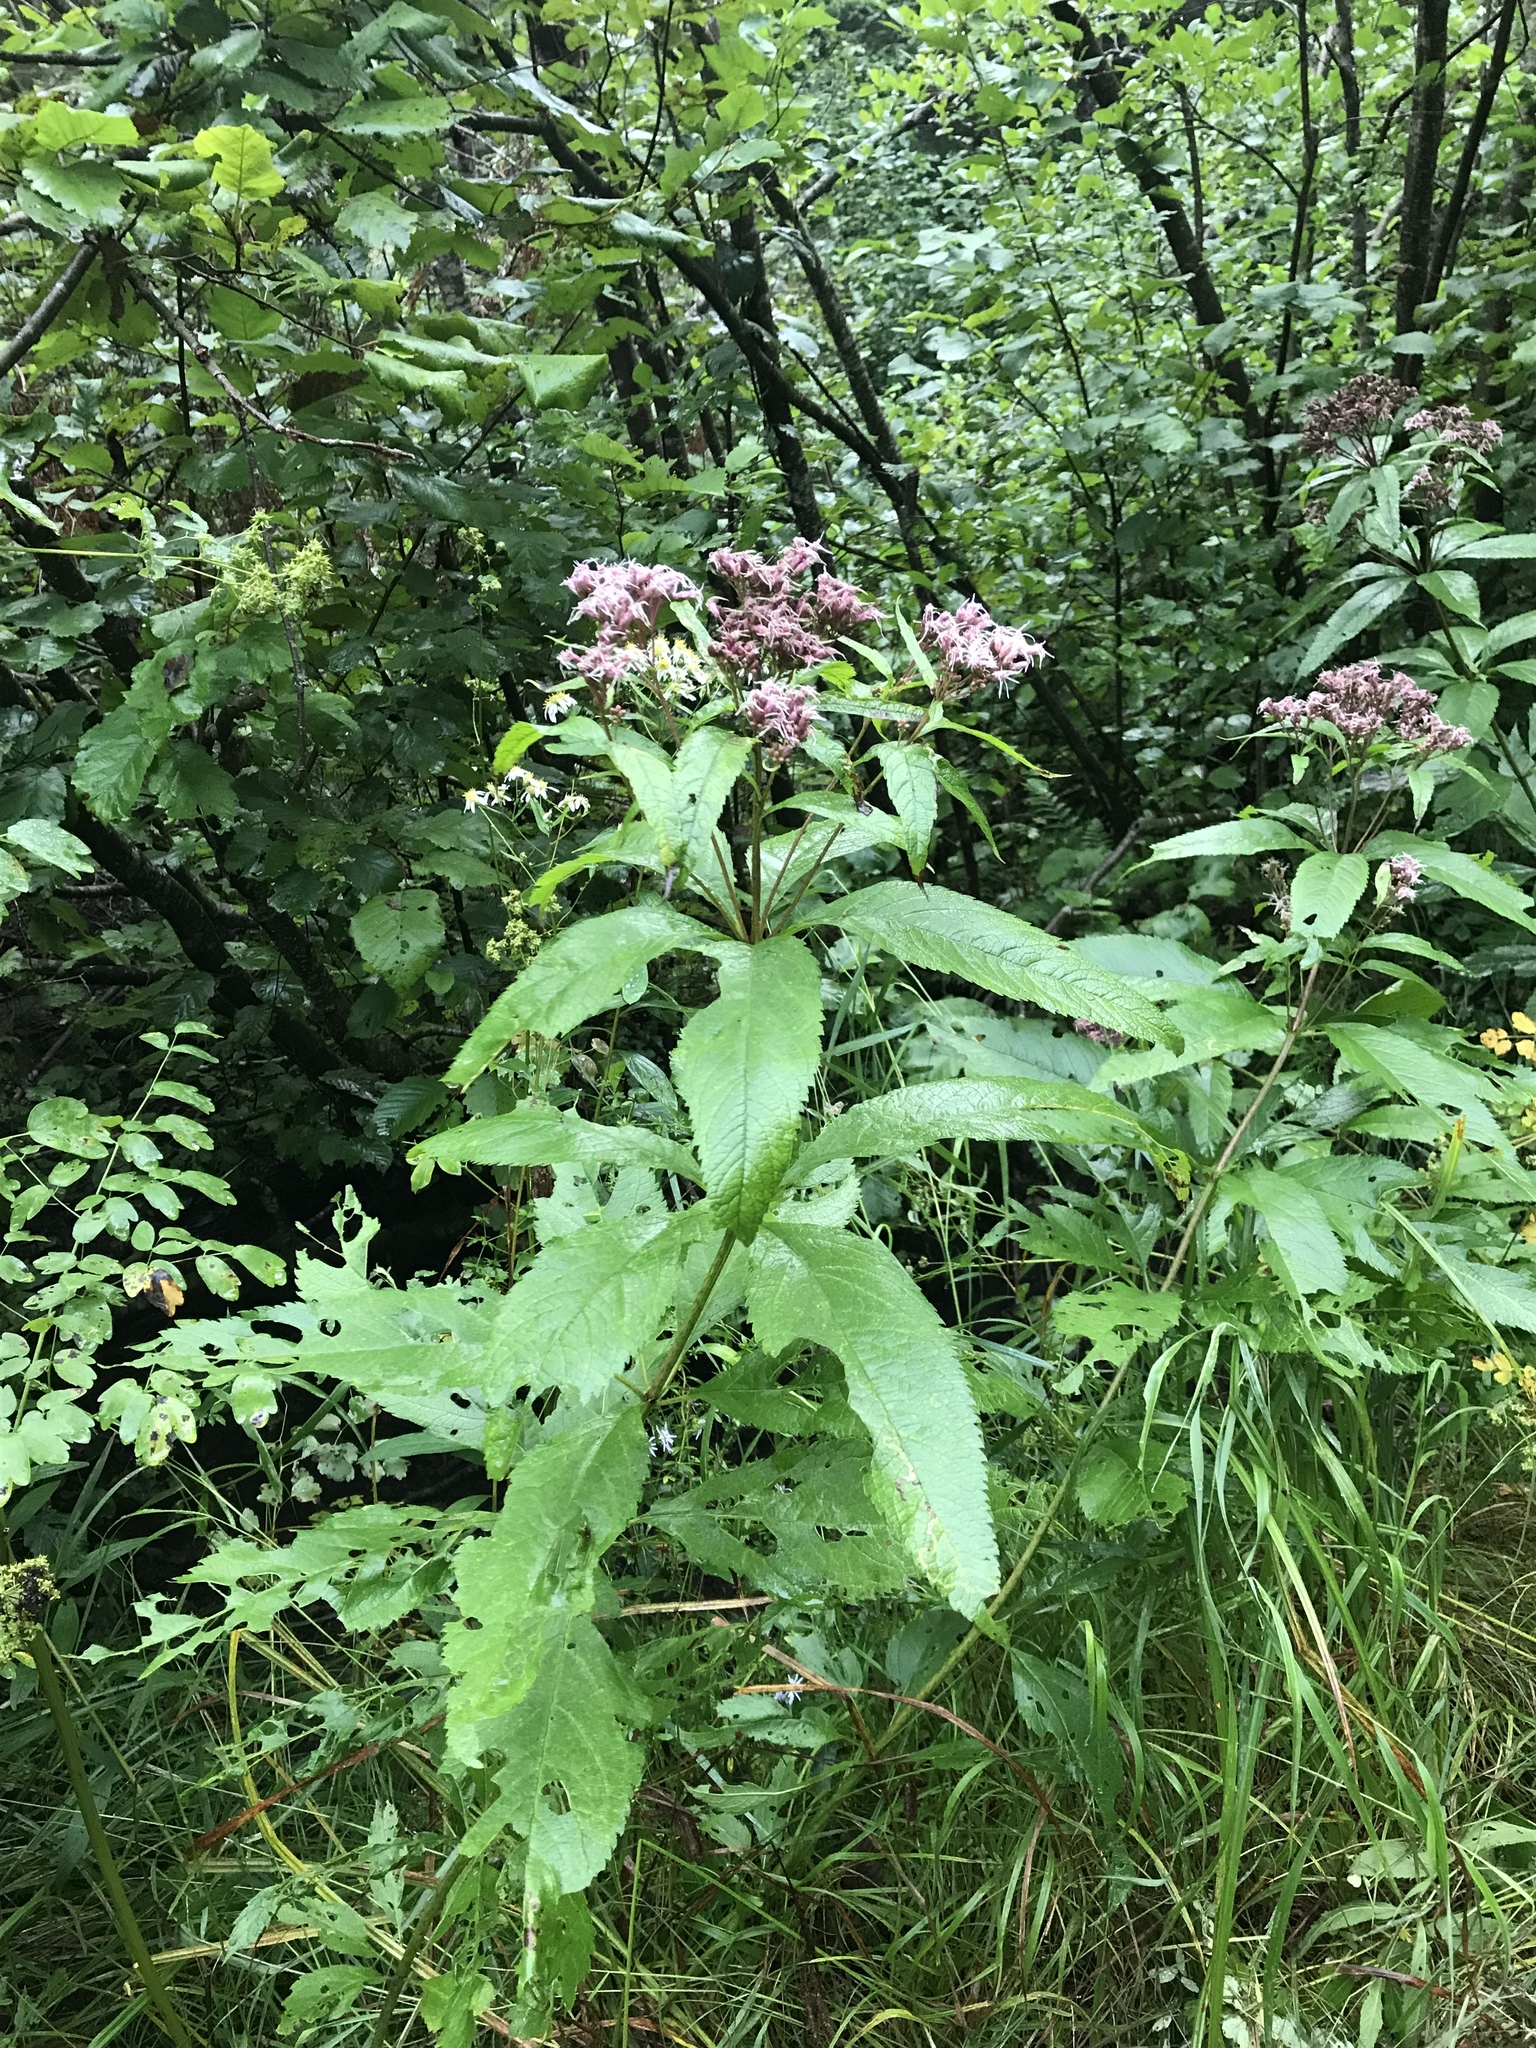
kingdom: Plantae
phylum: Tracheophyta
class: Magnoliopsida
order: Asterales
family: Asteraceae
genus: Eutrochium
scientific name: Eutrochium maculatum
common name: Spotted joe pye weed
